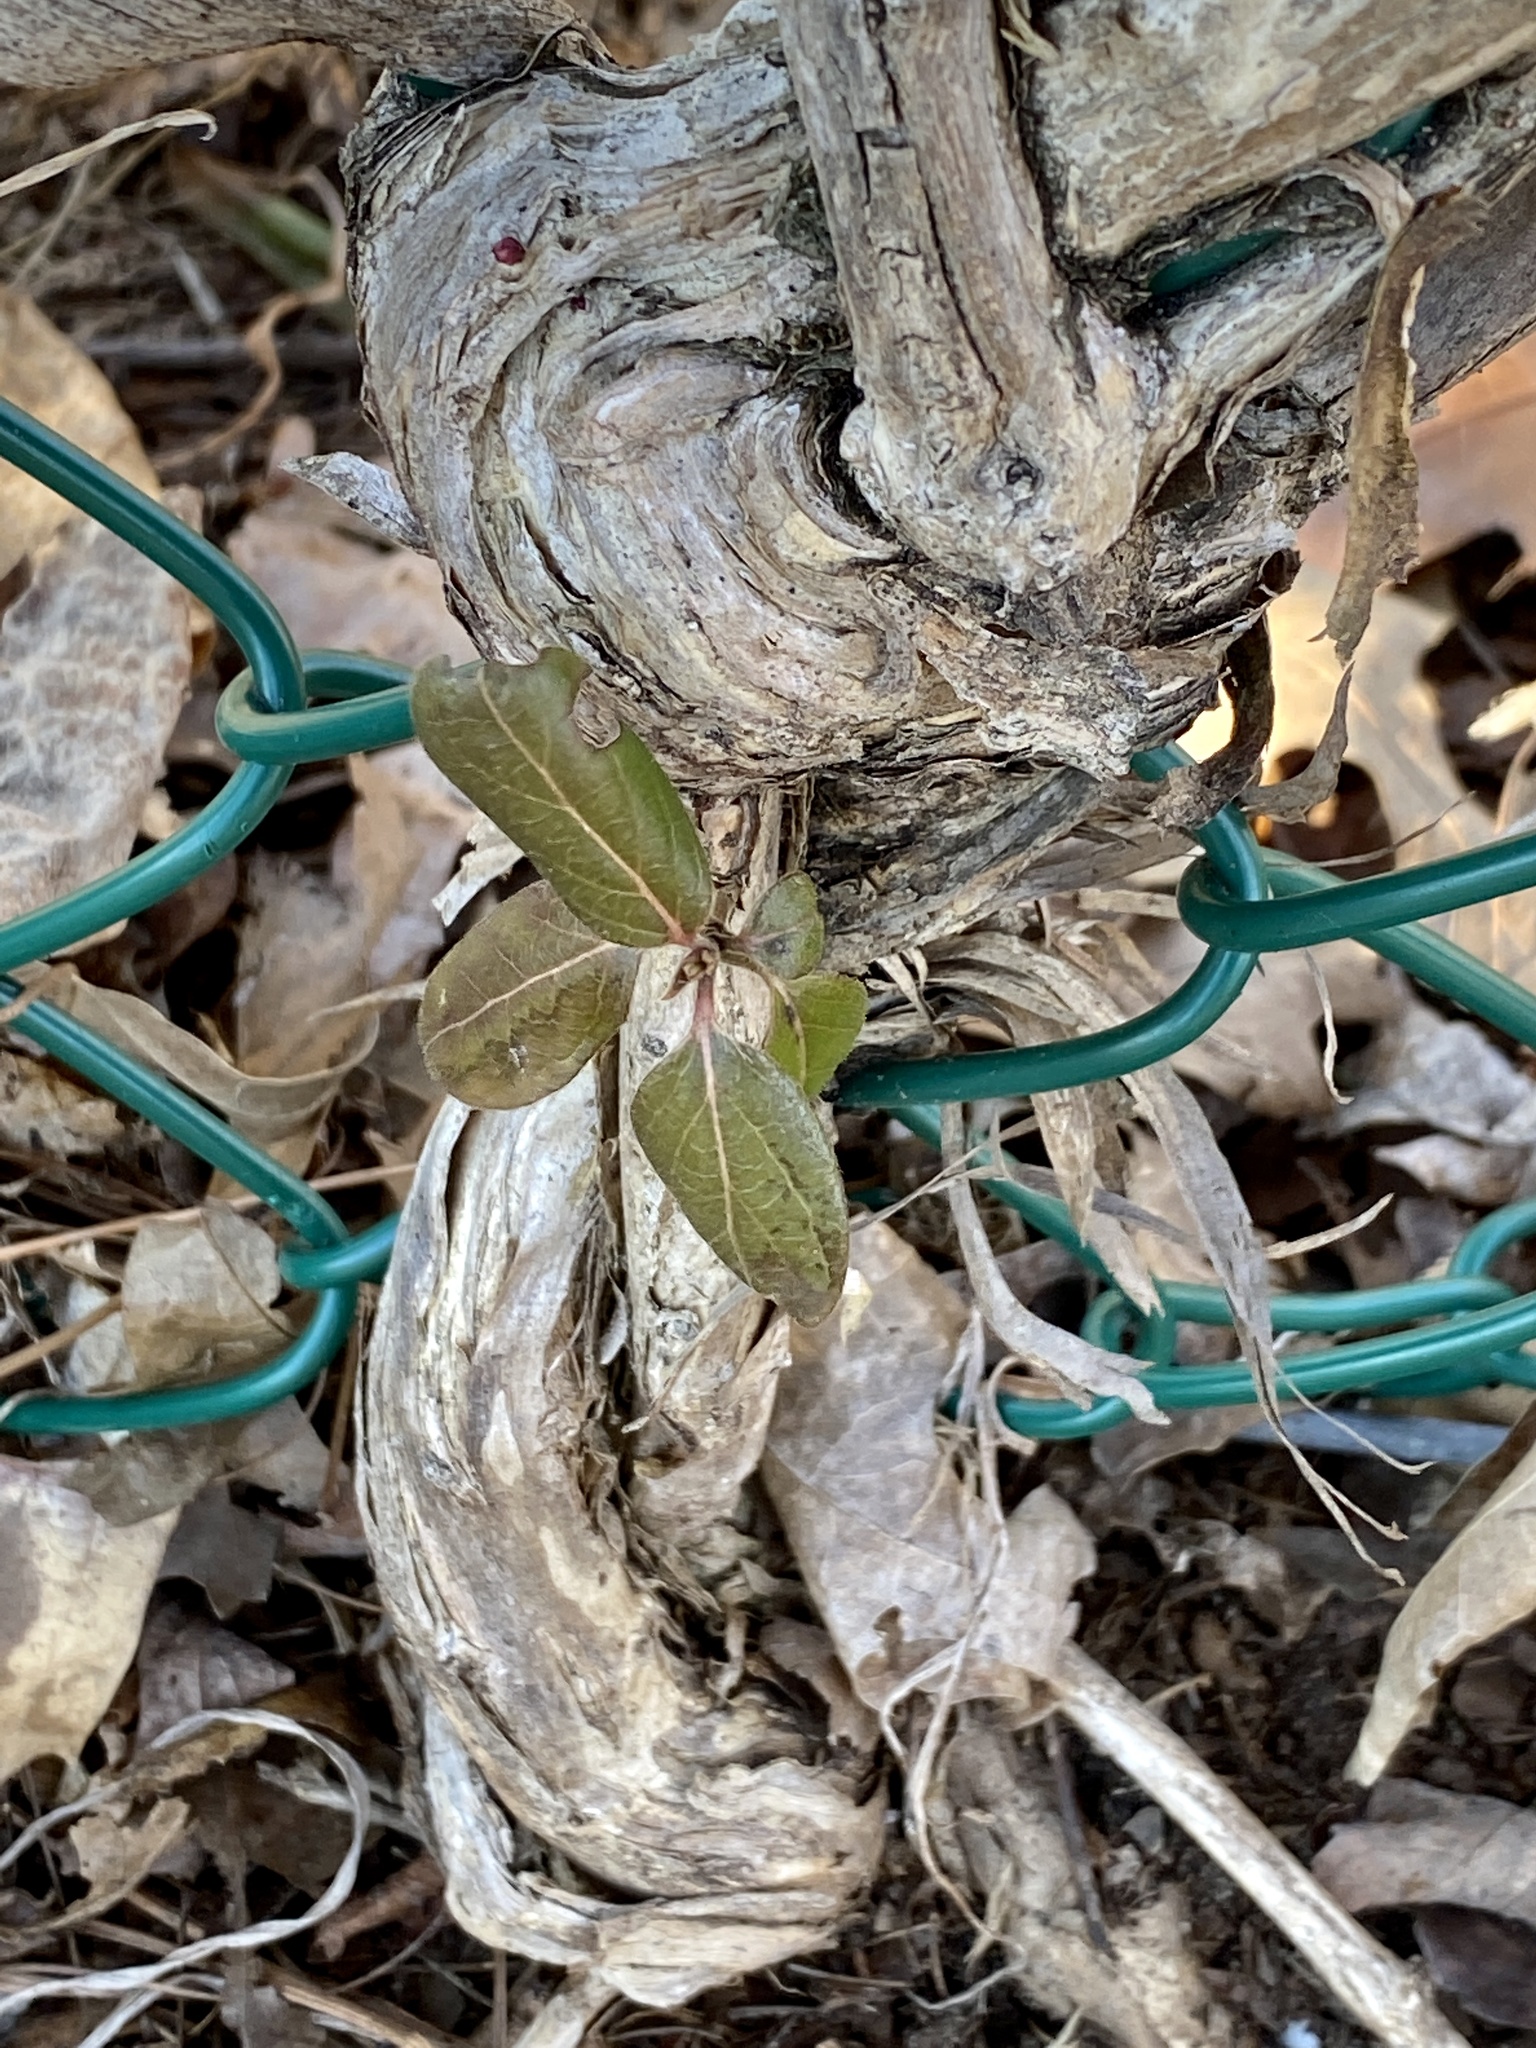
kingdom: Plantae
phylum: Tracheophyta
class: Magnoliopsida
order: Dipsacales
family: Caprifoliaceae
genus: Lonicera
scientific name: Lonicera japonica
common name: Japanese honeysuckle
